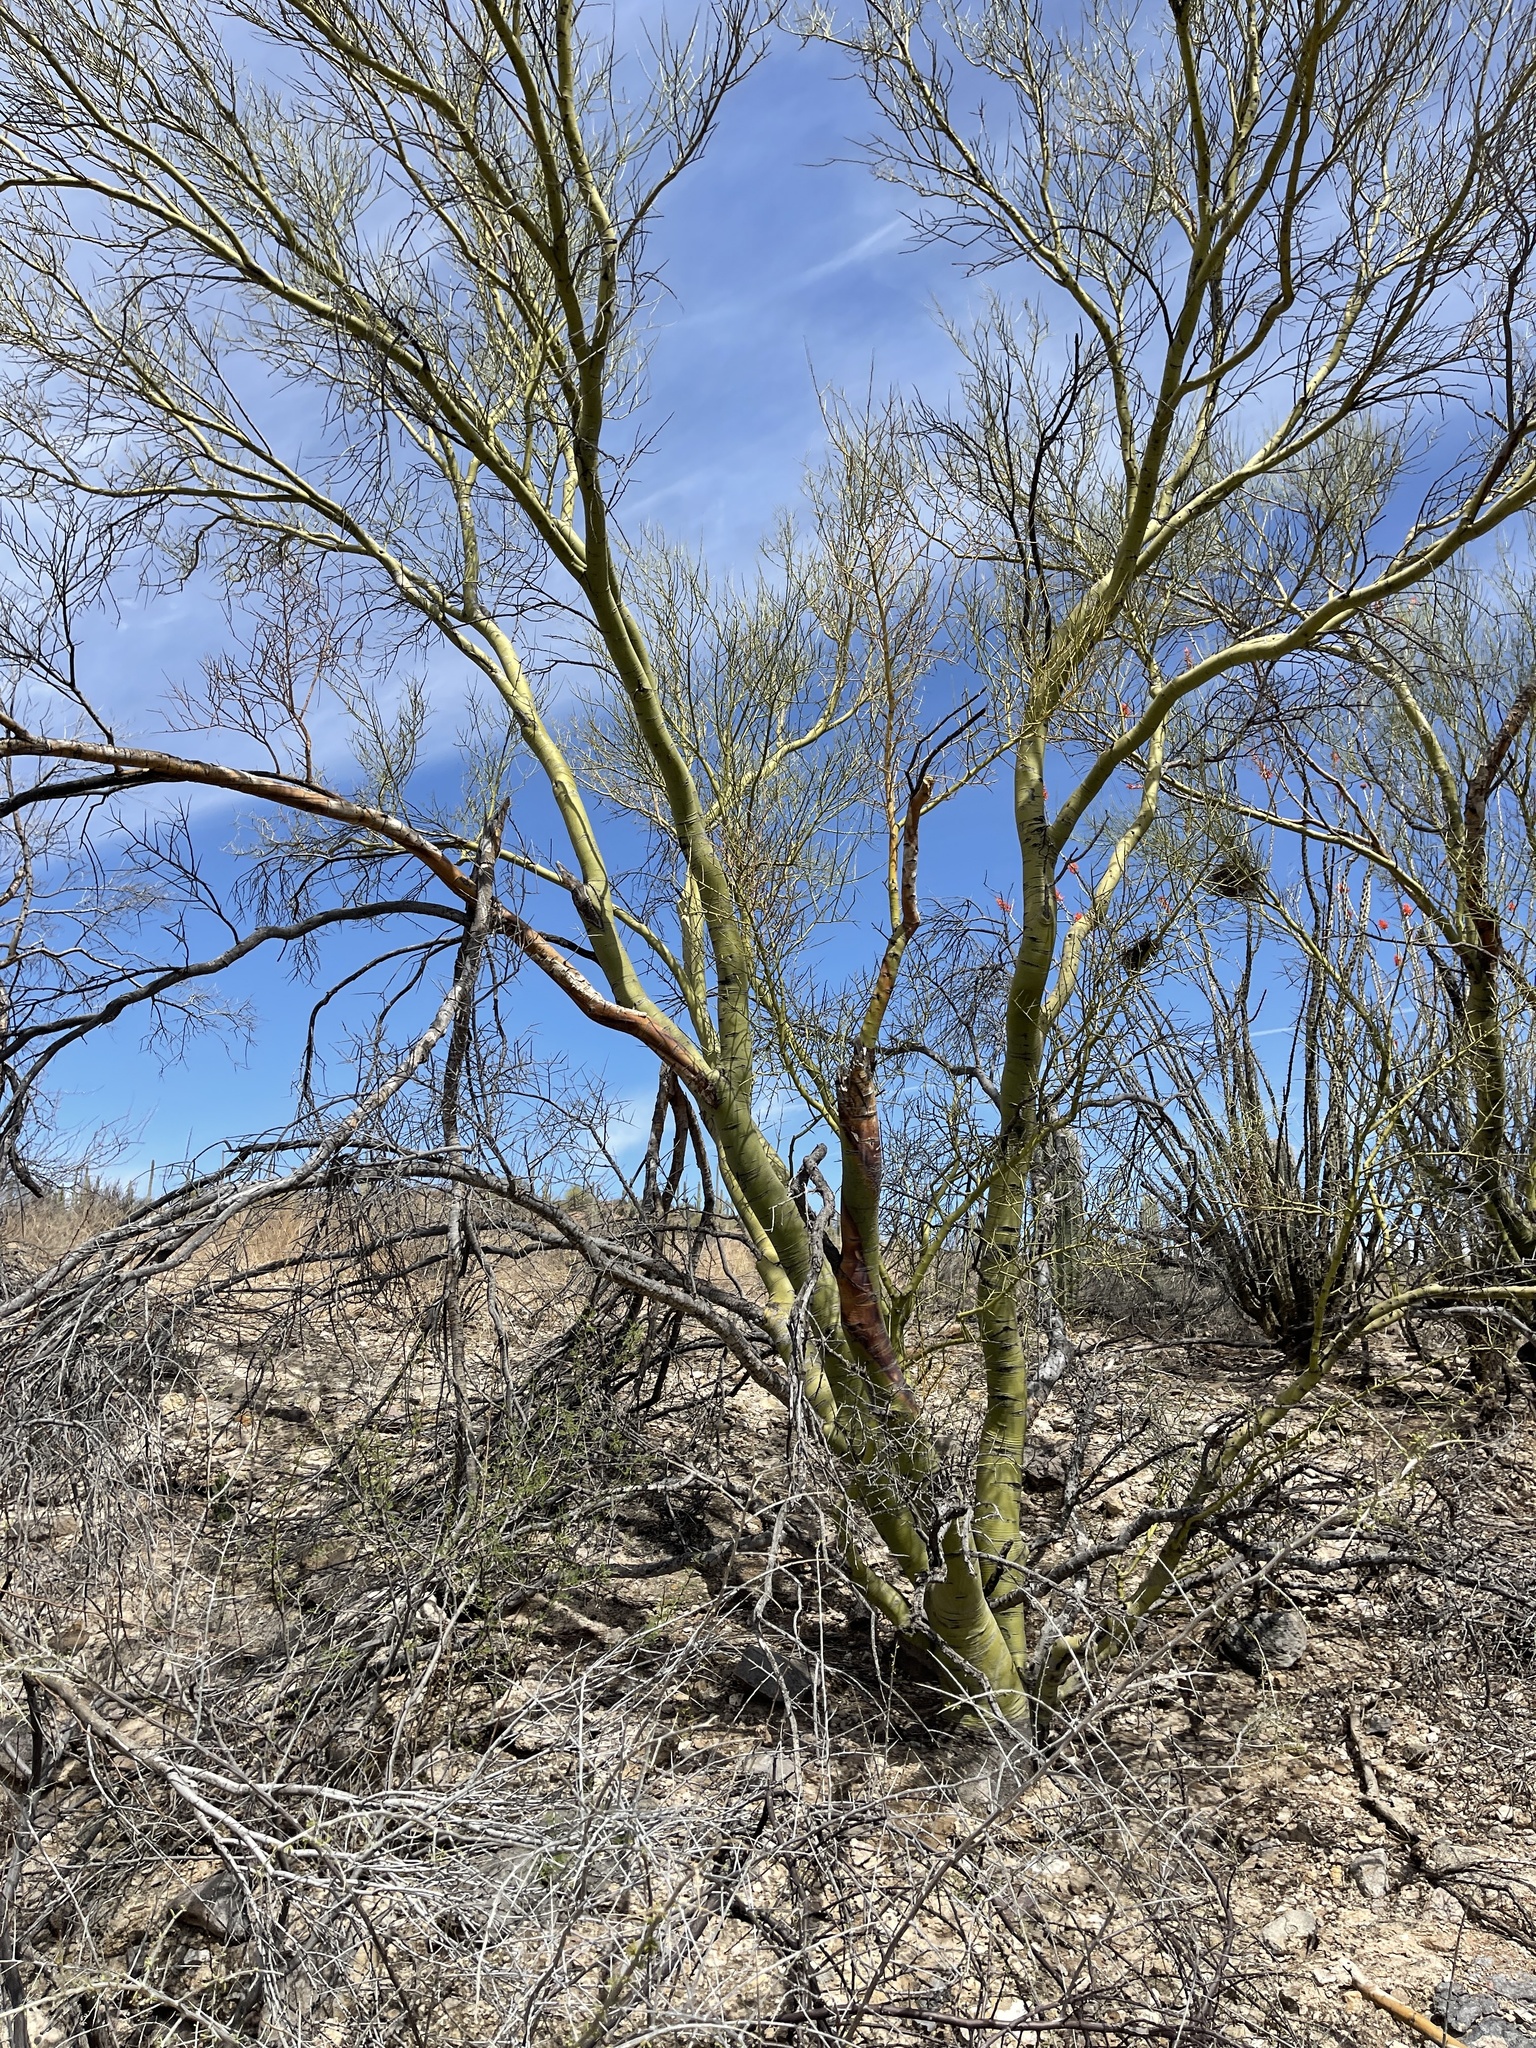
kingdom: Plantae
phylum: Tracheophyta
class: Magnoliopsida
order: Fabales
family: Fabaceae
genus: Parkinsonia
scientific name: Parkinsonia microphylla
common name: Yellow paloverde
